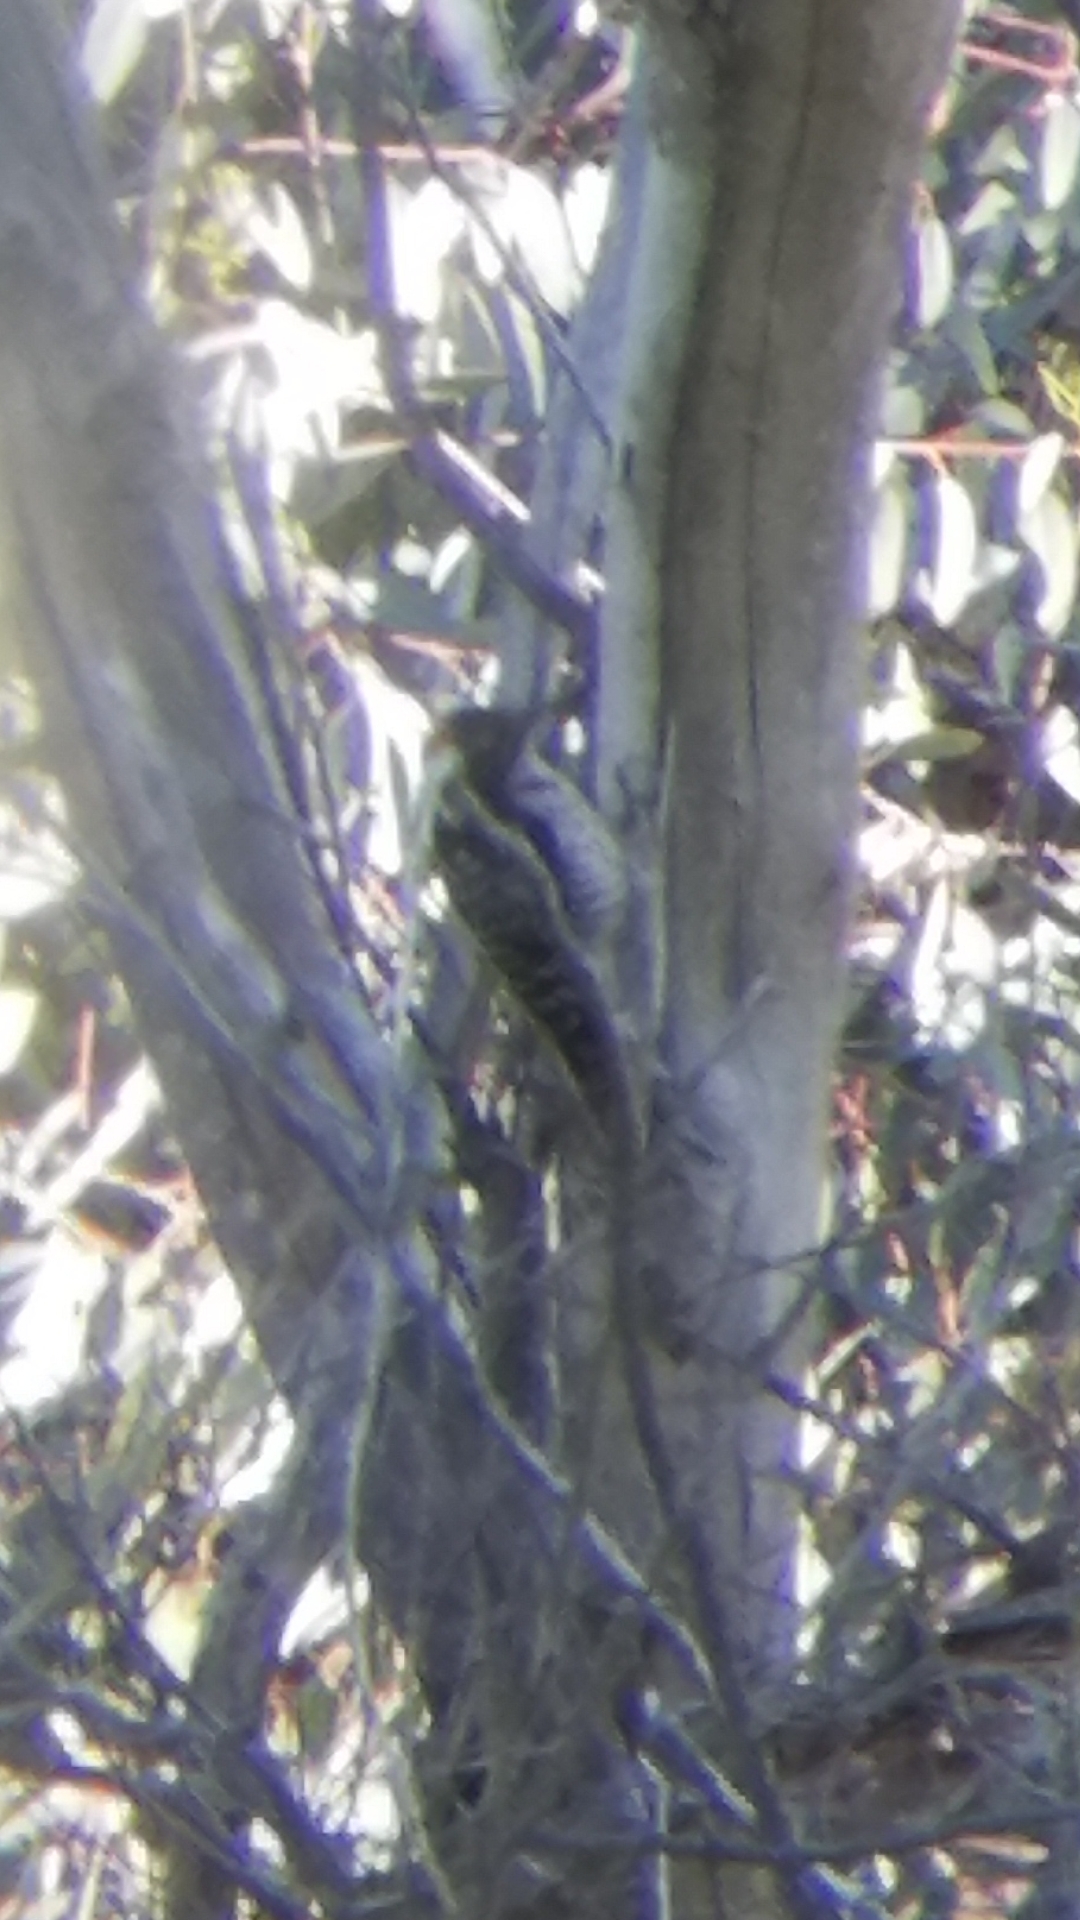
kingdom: Animalia
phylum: Chordata
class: Aves
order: Piciformes
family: Picidae
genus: Dryobates
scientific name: Dryobates nuttallii
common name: Nuttall's woodpecker
